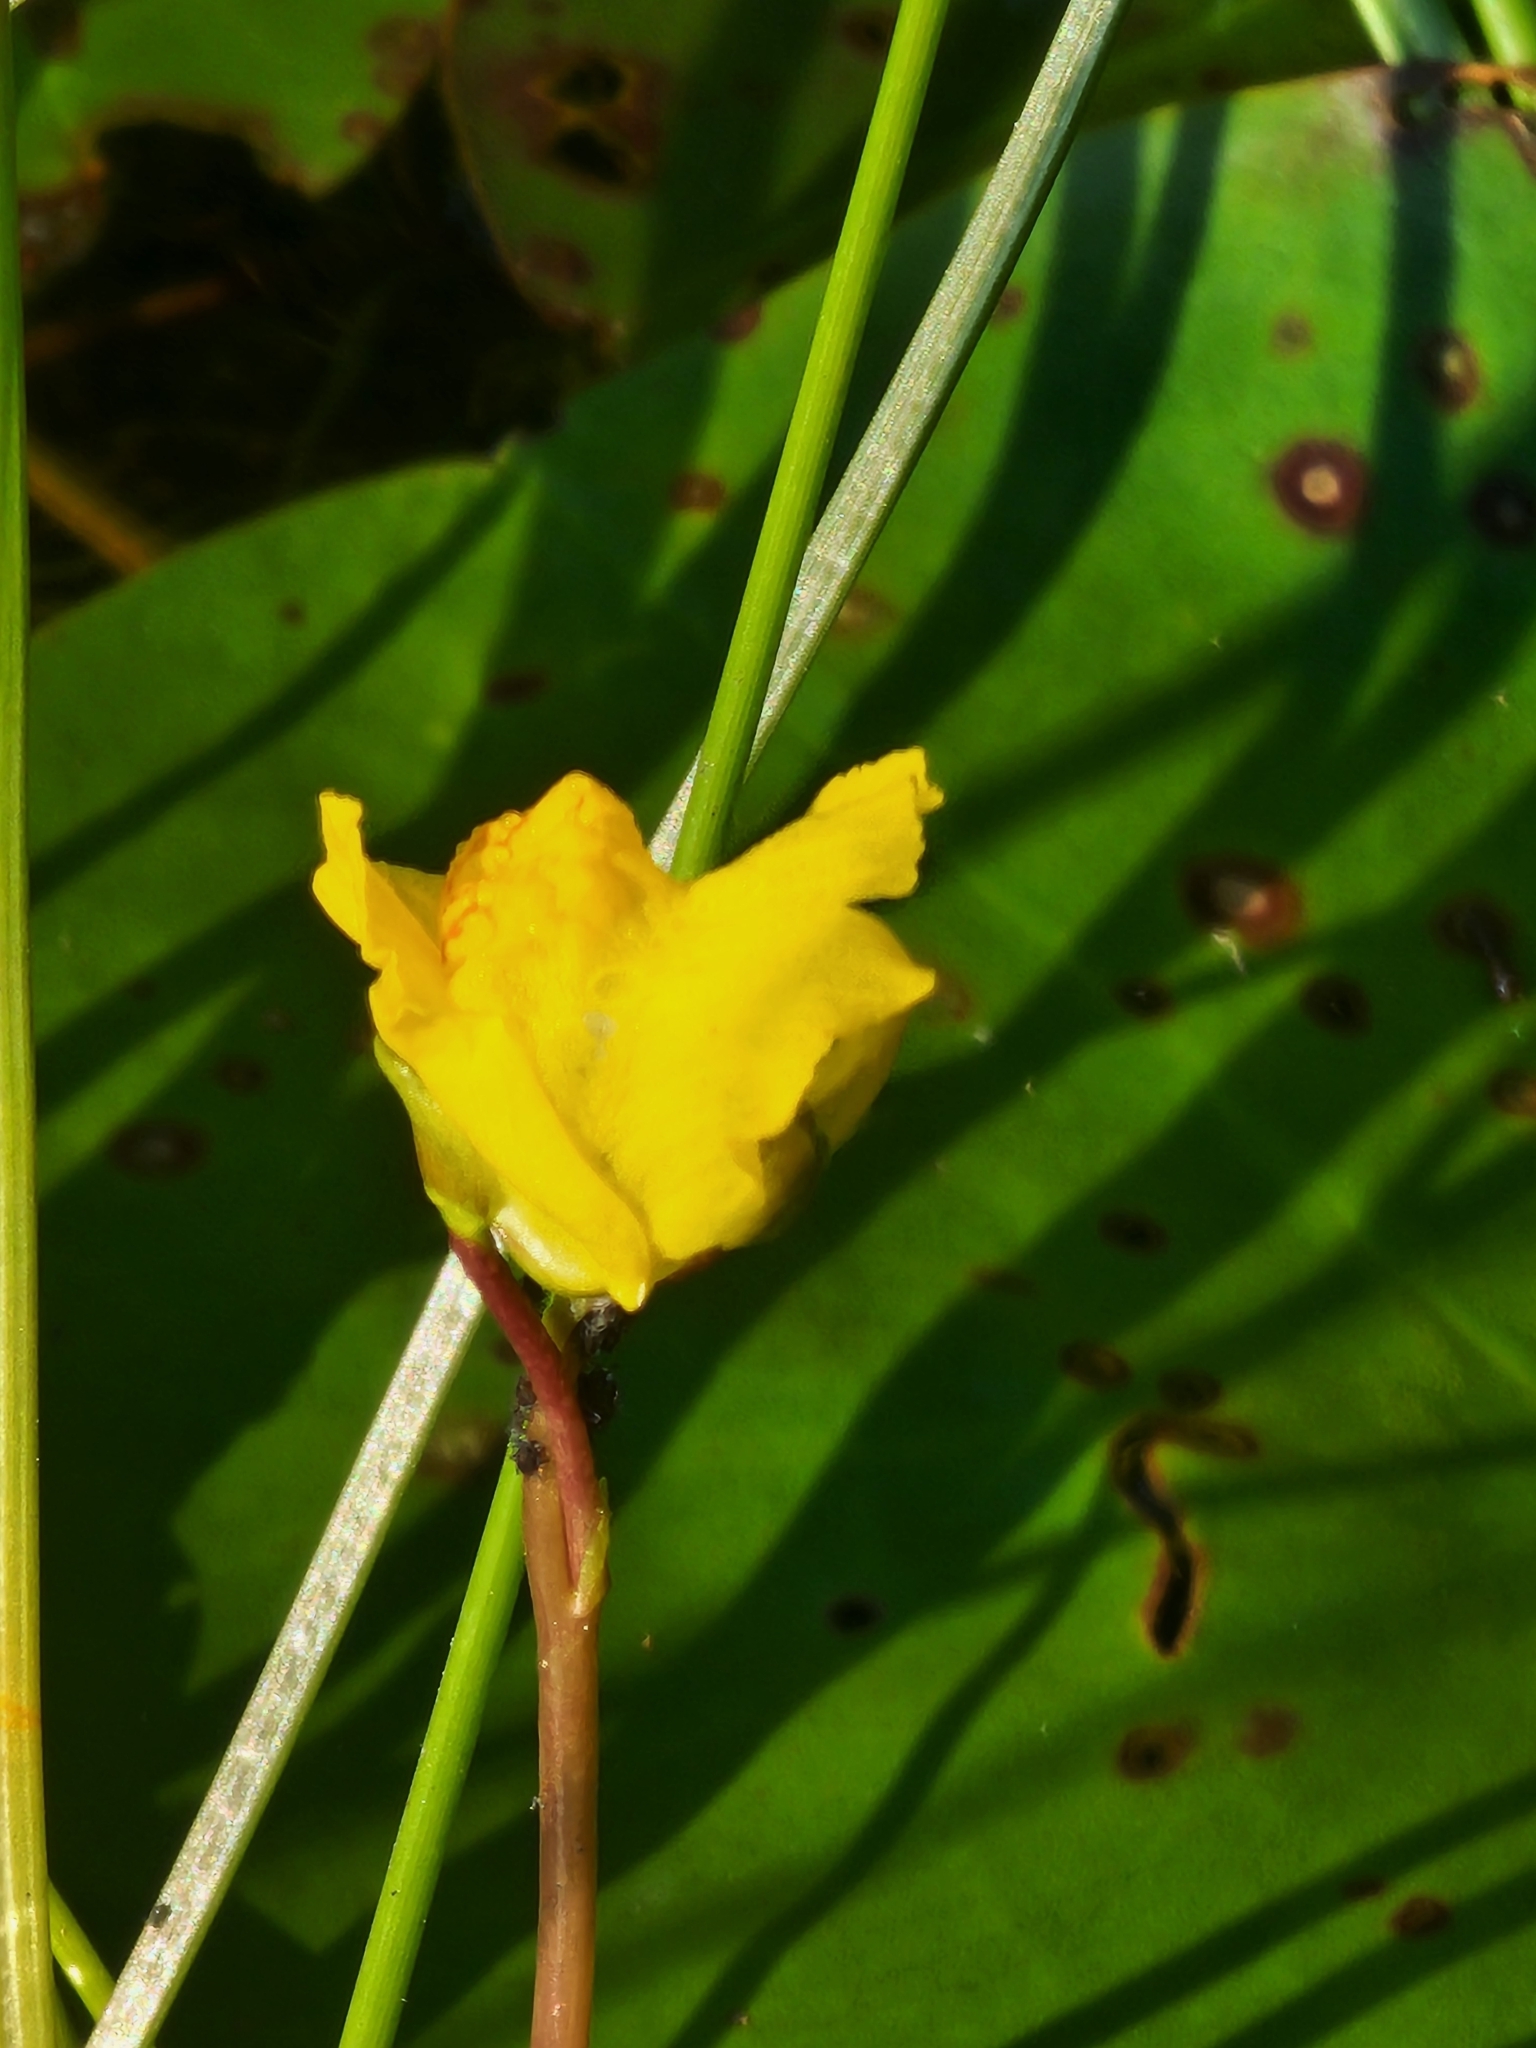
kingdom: Plantae
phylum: Tracheophyta
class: Magnoliopsida
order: Lamiales
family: Lentibulariaceae
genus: Utricularia
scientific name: Utricularia macrorhiza
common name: Common bladderwort
